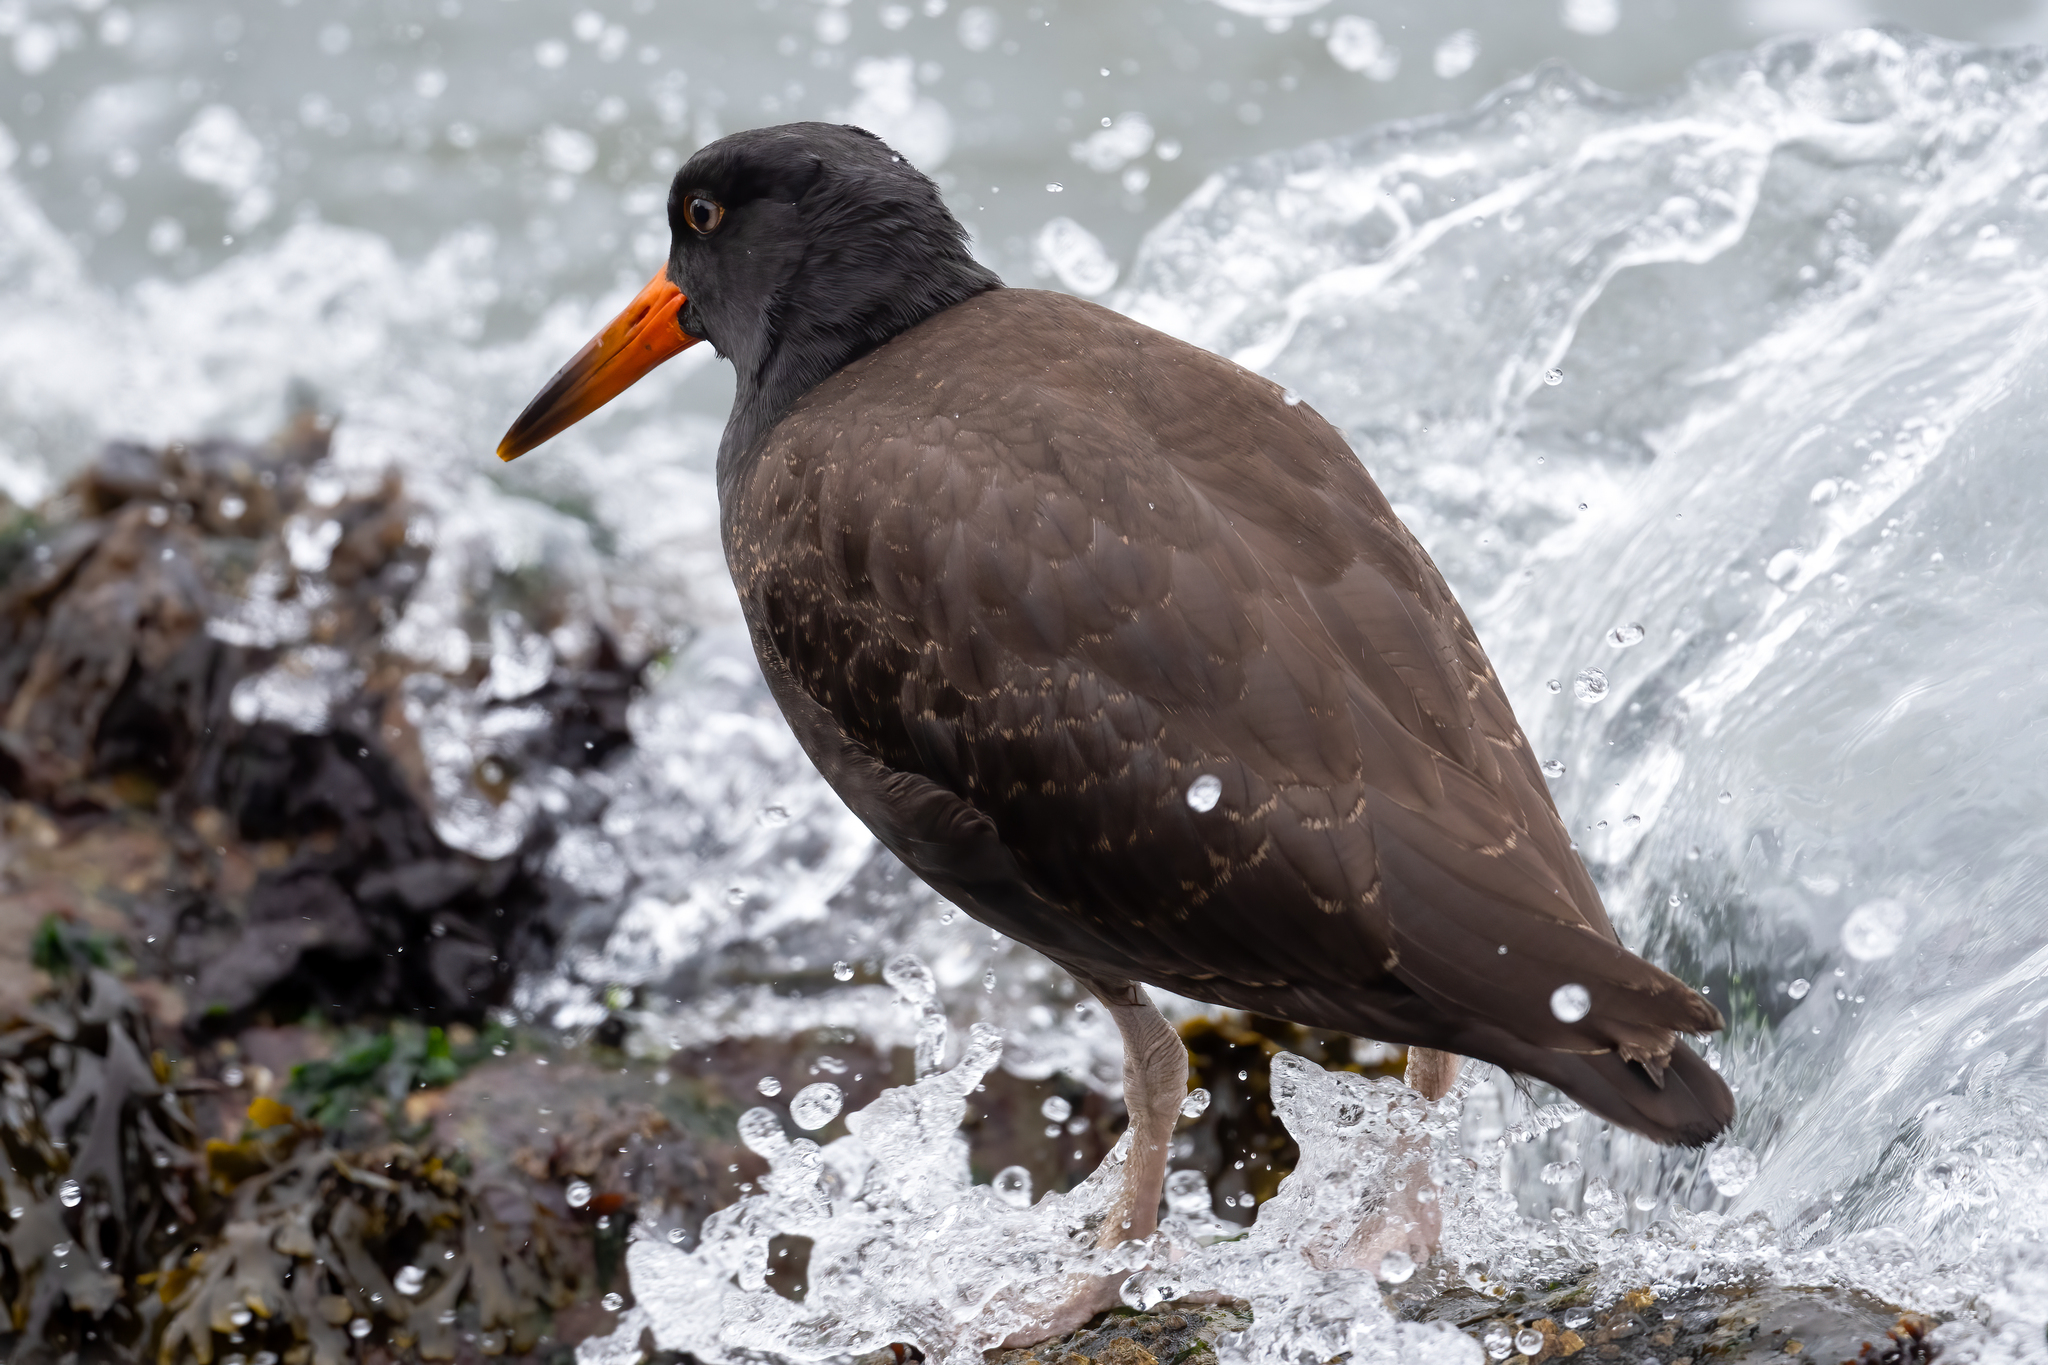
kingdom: Animalia
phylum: Chordata
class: Aves
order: Charadriiformes
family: Haematopodidae
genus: Haematopus
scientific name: Haematopus bachmani
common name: Black oystercatcher
